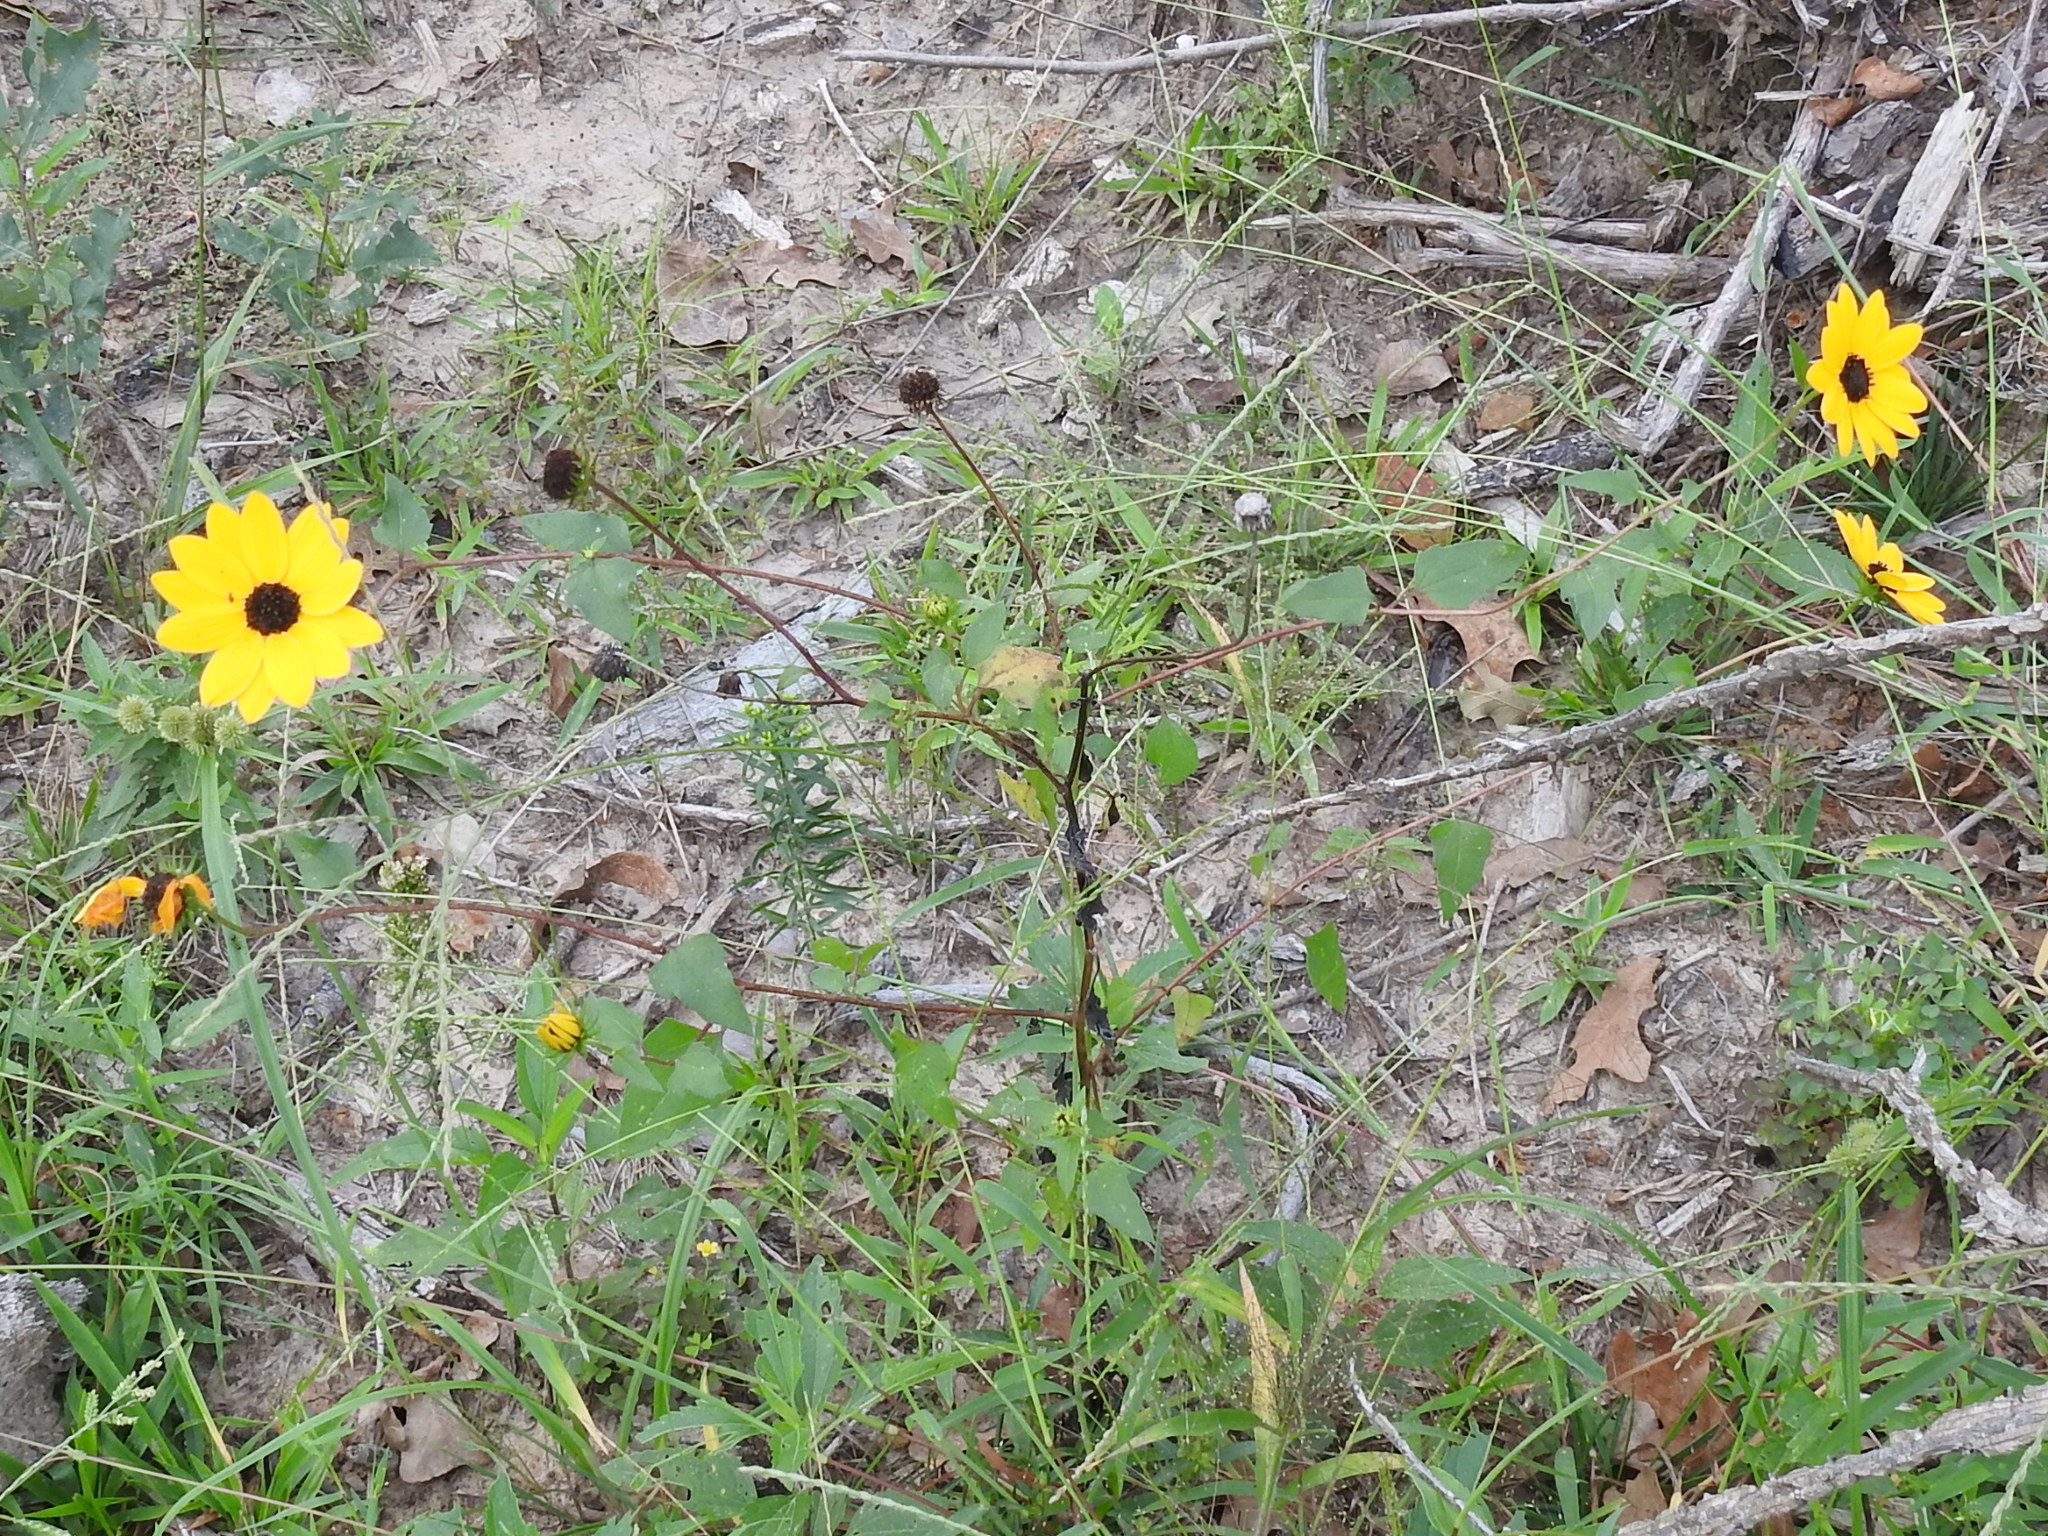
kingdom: Plantae
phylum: Tracheophyta
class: Magnoliopsida
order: Asterales
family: Asteraceae
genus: Helianthus
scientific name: Helianthus debilis
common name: Weak sunflower
